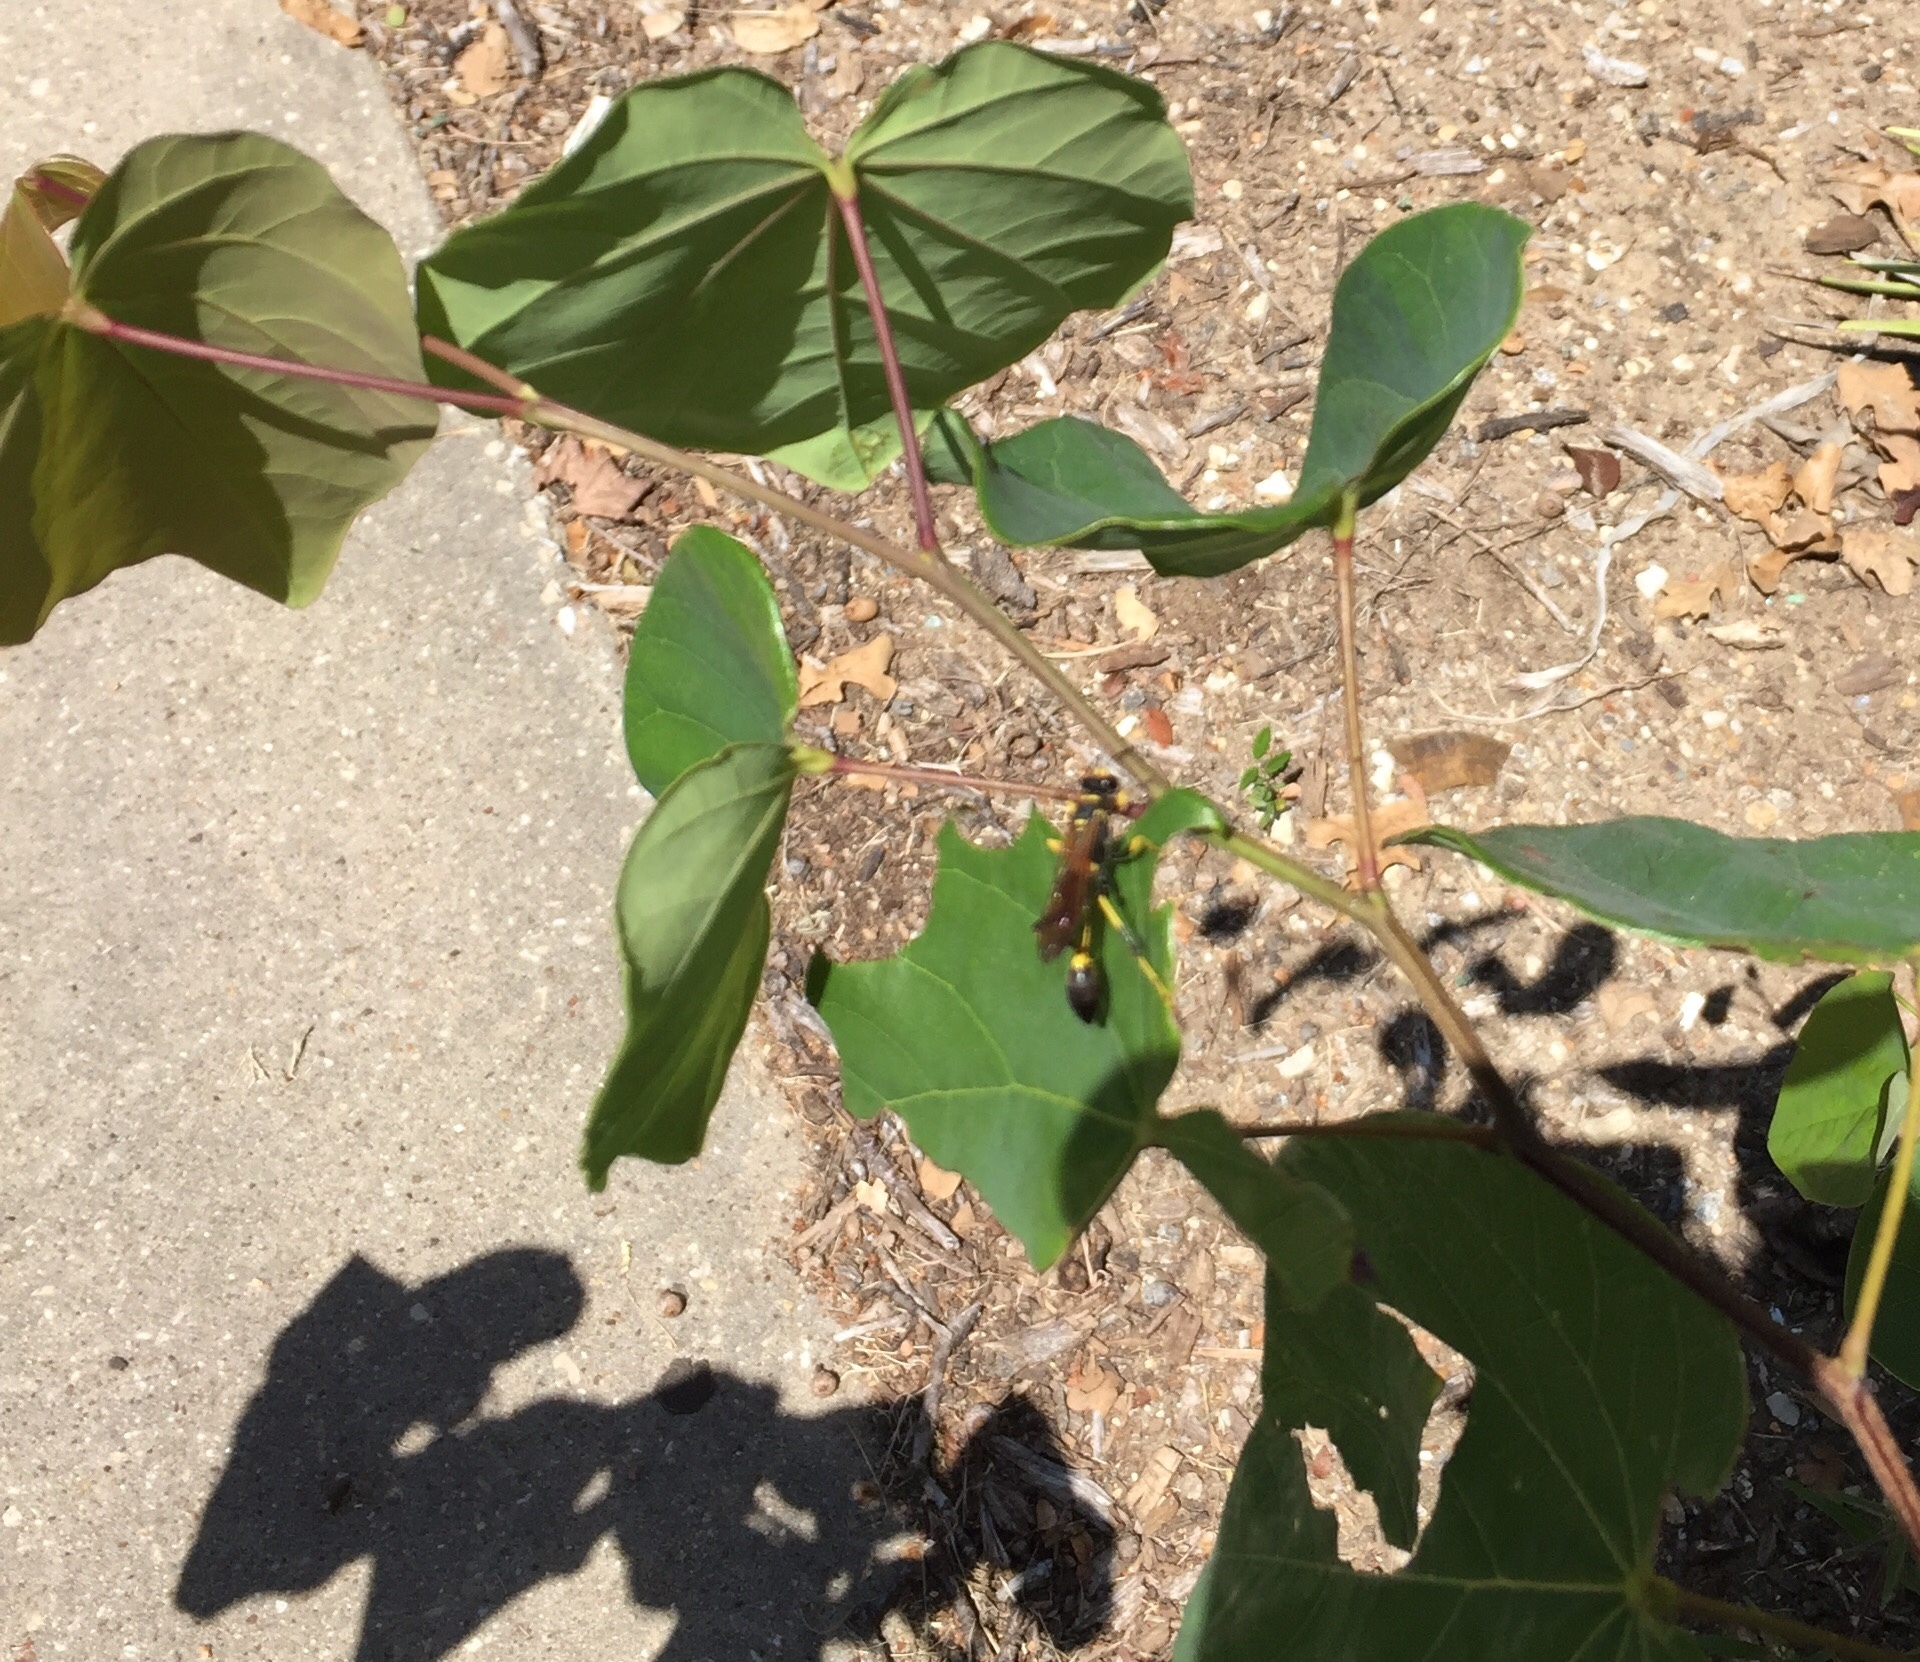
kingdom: Animalia
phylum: Arthropoda
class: Insecta
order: Hymenoptera
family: Sphecidae
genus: Sceliphron
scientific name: Sceliphron caementarium
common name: Mud dauber
